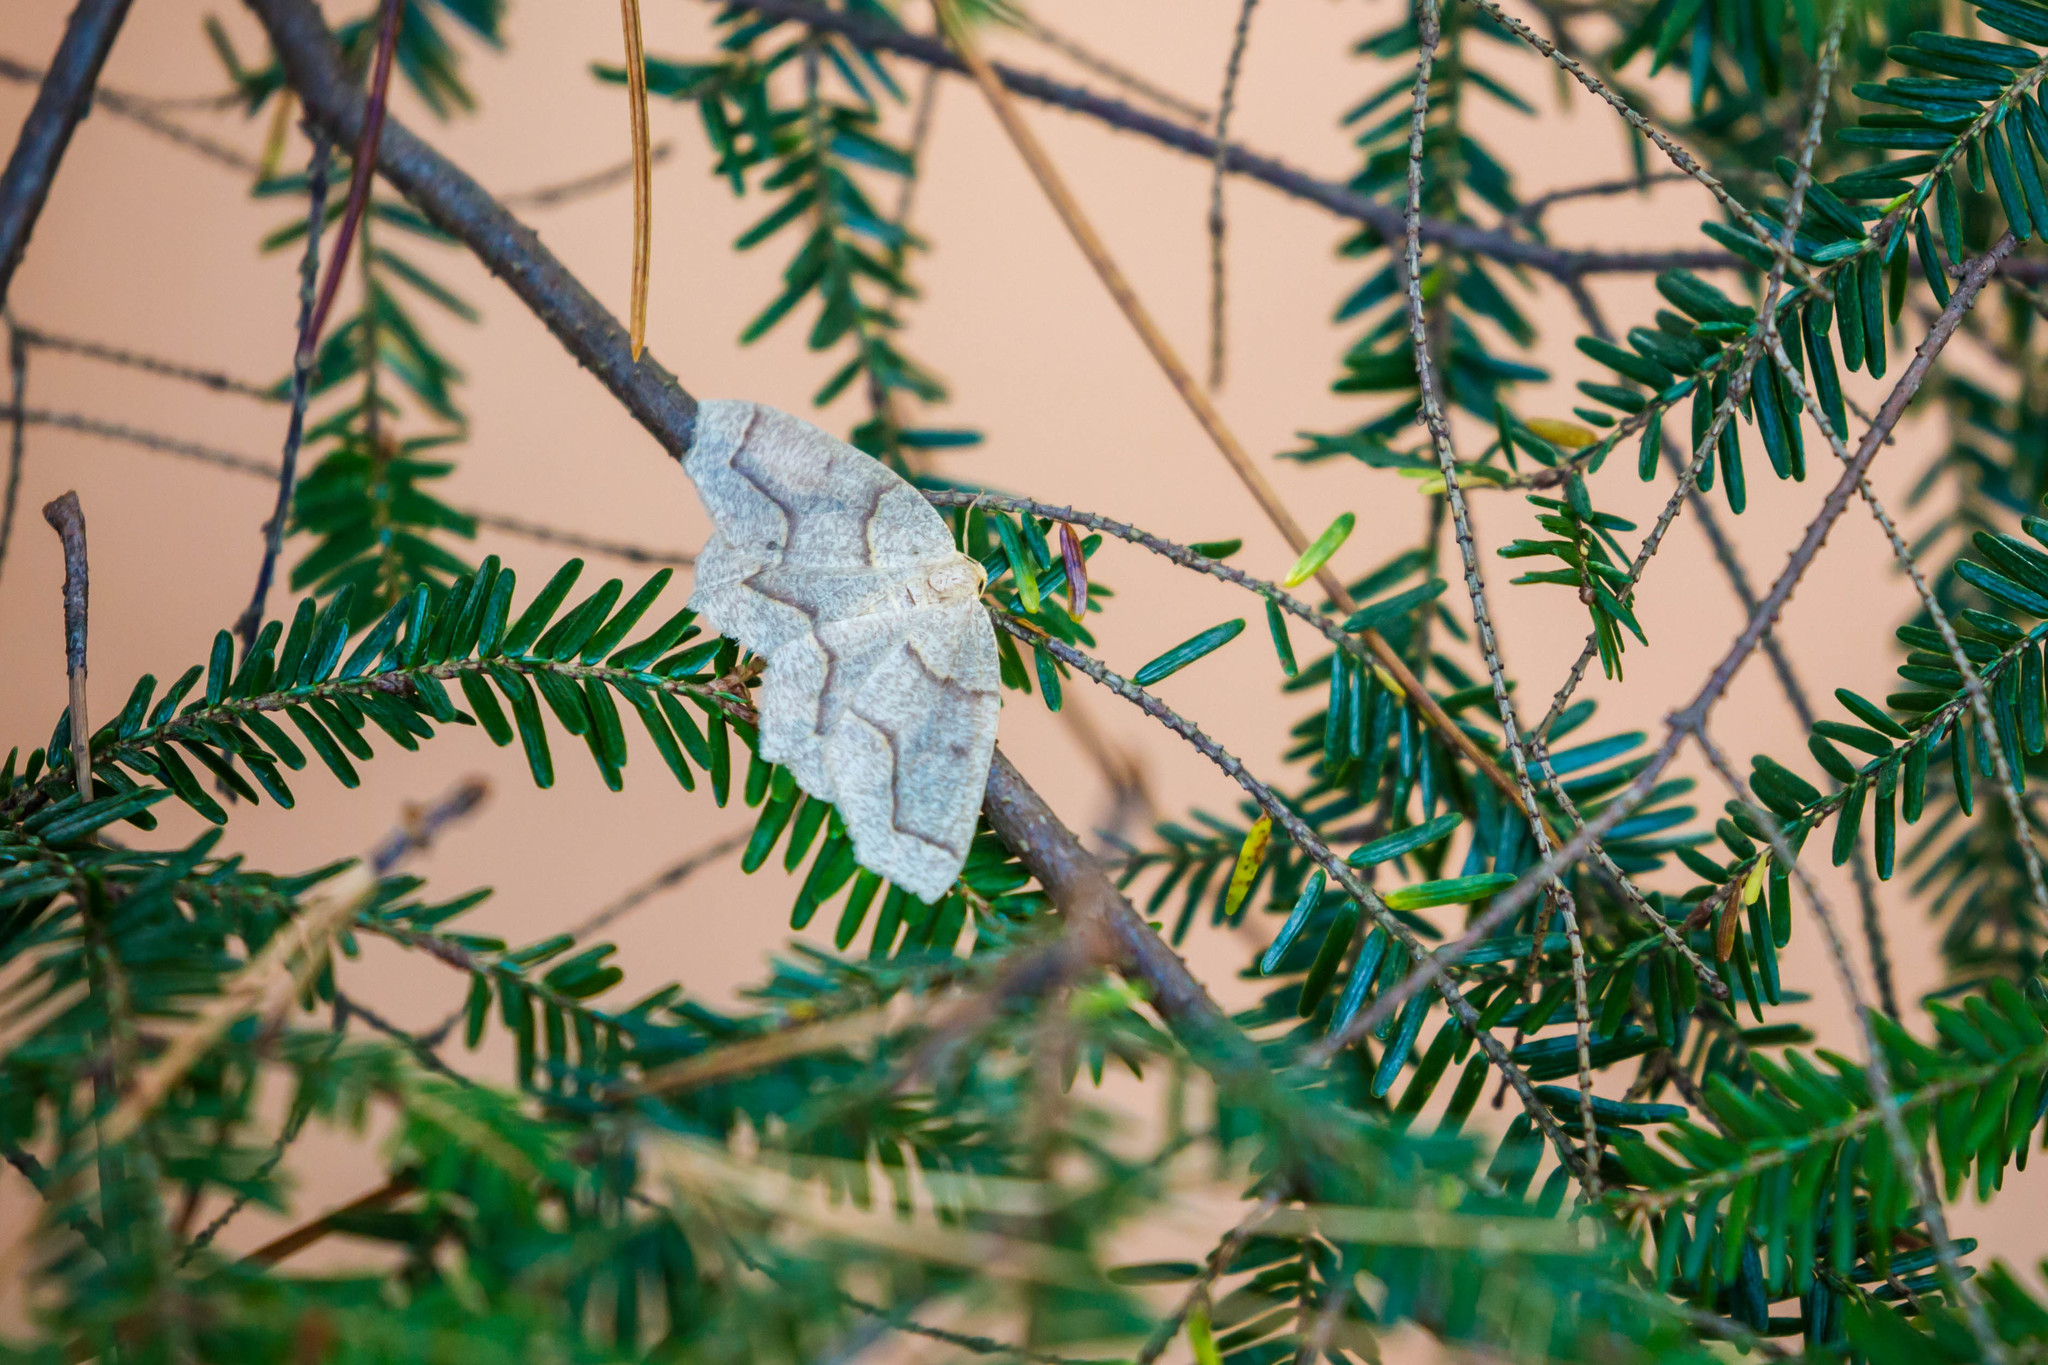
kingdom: Animalia
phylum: Arthropoda
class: Insecta
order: Lepidoptera
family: Geometridae
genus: Lambdina
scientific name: Lambdina fiscellaria
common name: Hemlock looper
